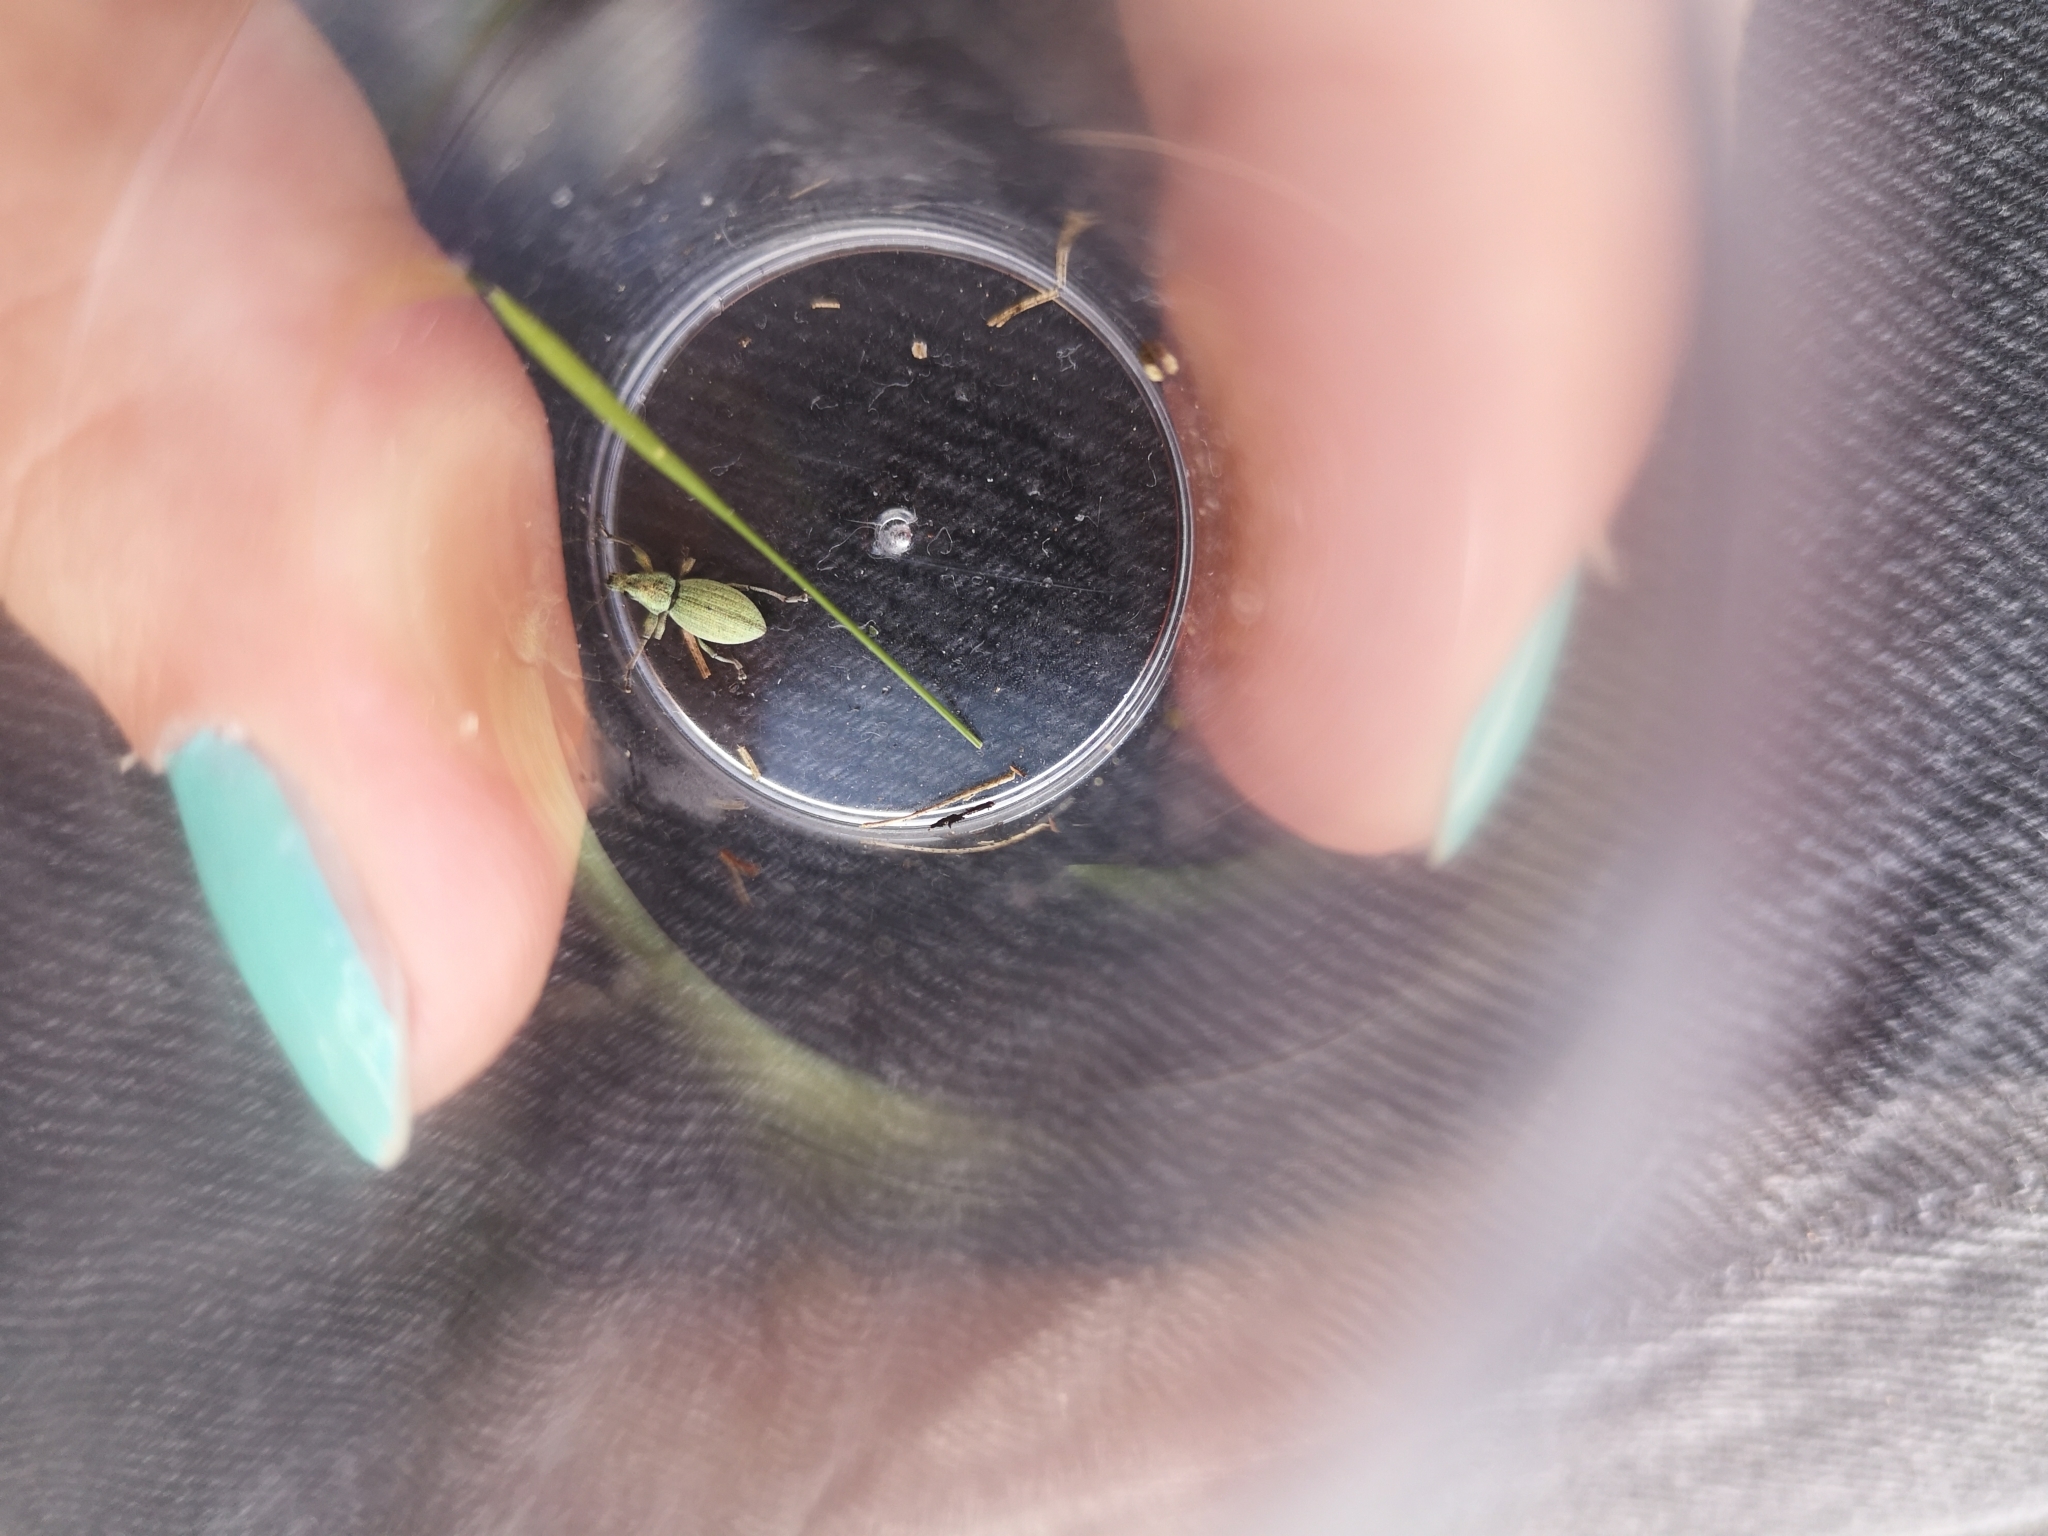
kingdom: Animalia
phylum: Arthropoda
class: Insecta
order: Coleoptera
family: Curculionidae
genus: Eusomus
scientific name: Eusomus ovulum
